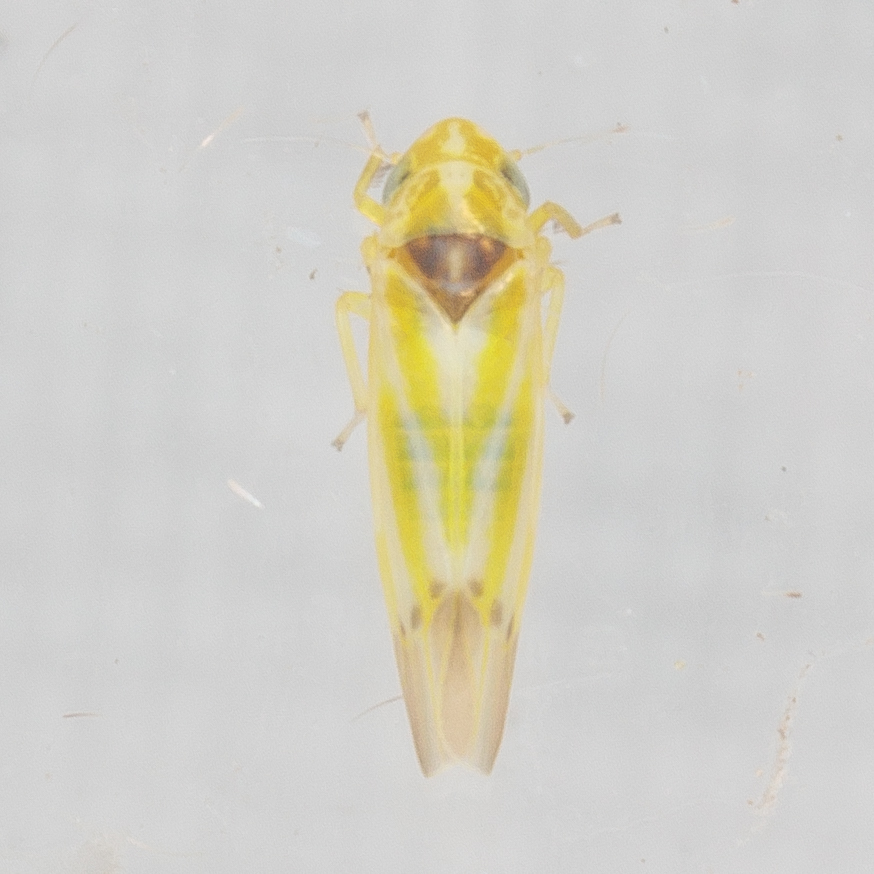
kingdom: Animalia
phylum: Arthropoda
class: Insecta
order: Hemiptera
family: Cicadellidae
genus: Erythridula
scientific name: Erythridula penenoeva
